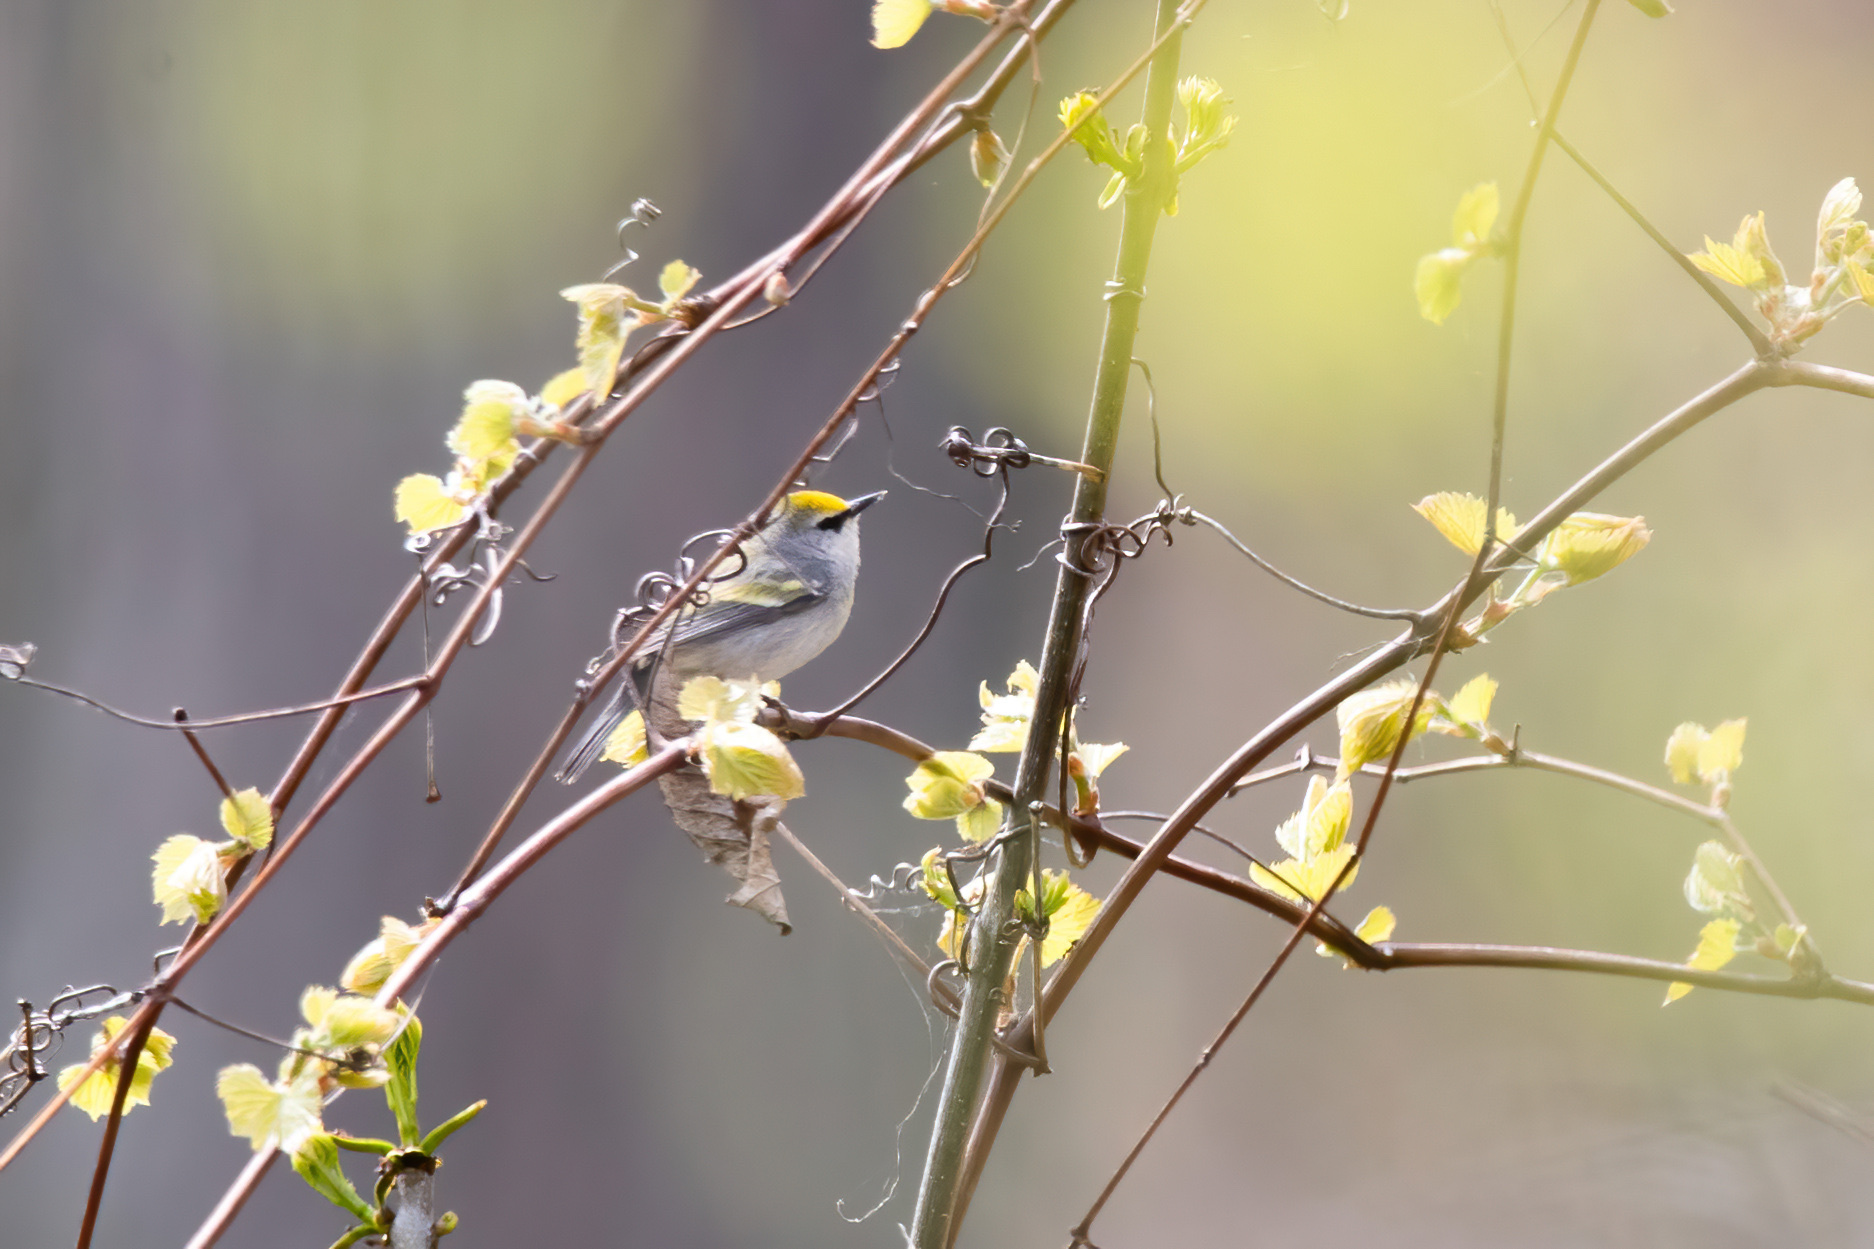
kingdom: Animalia
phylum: Chordata
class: Aves
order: Passeriformes
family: Parulidae
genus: Vermivora
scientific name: Vermivora
